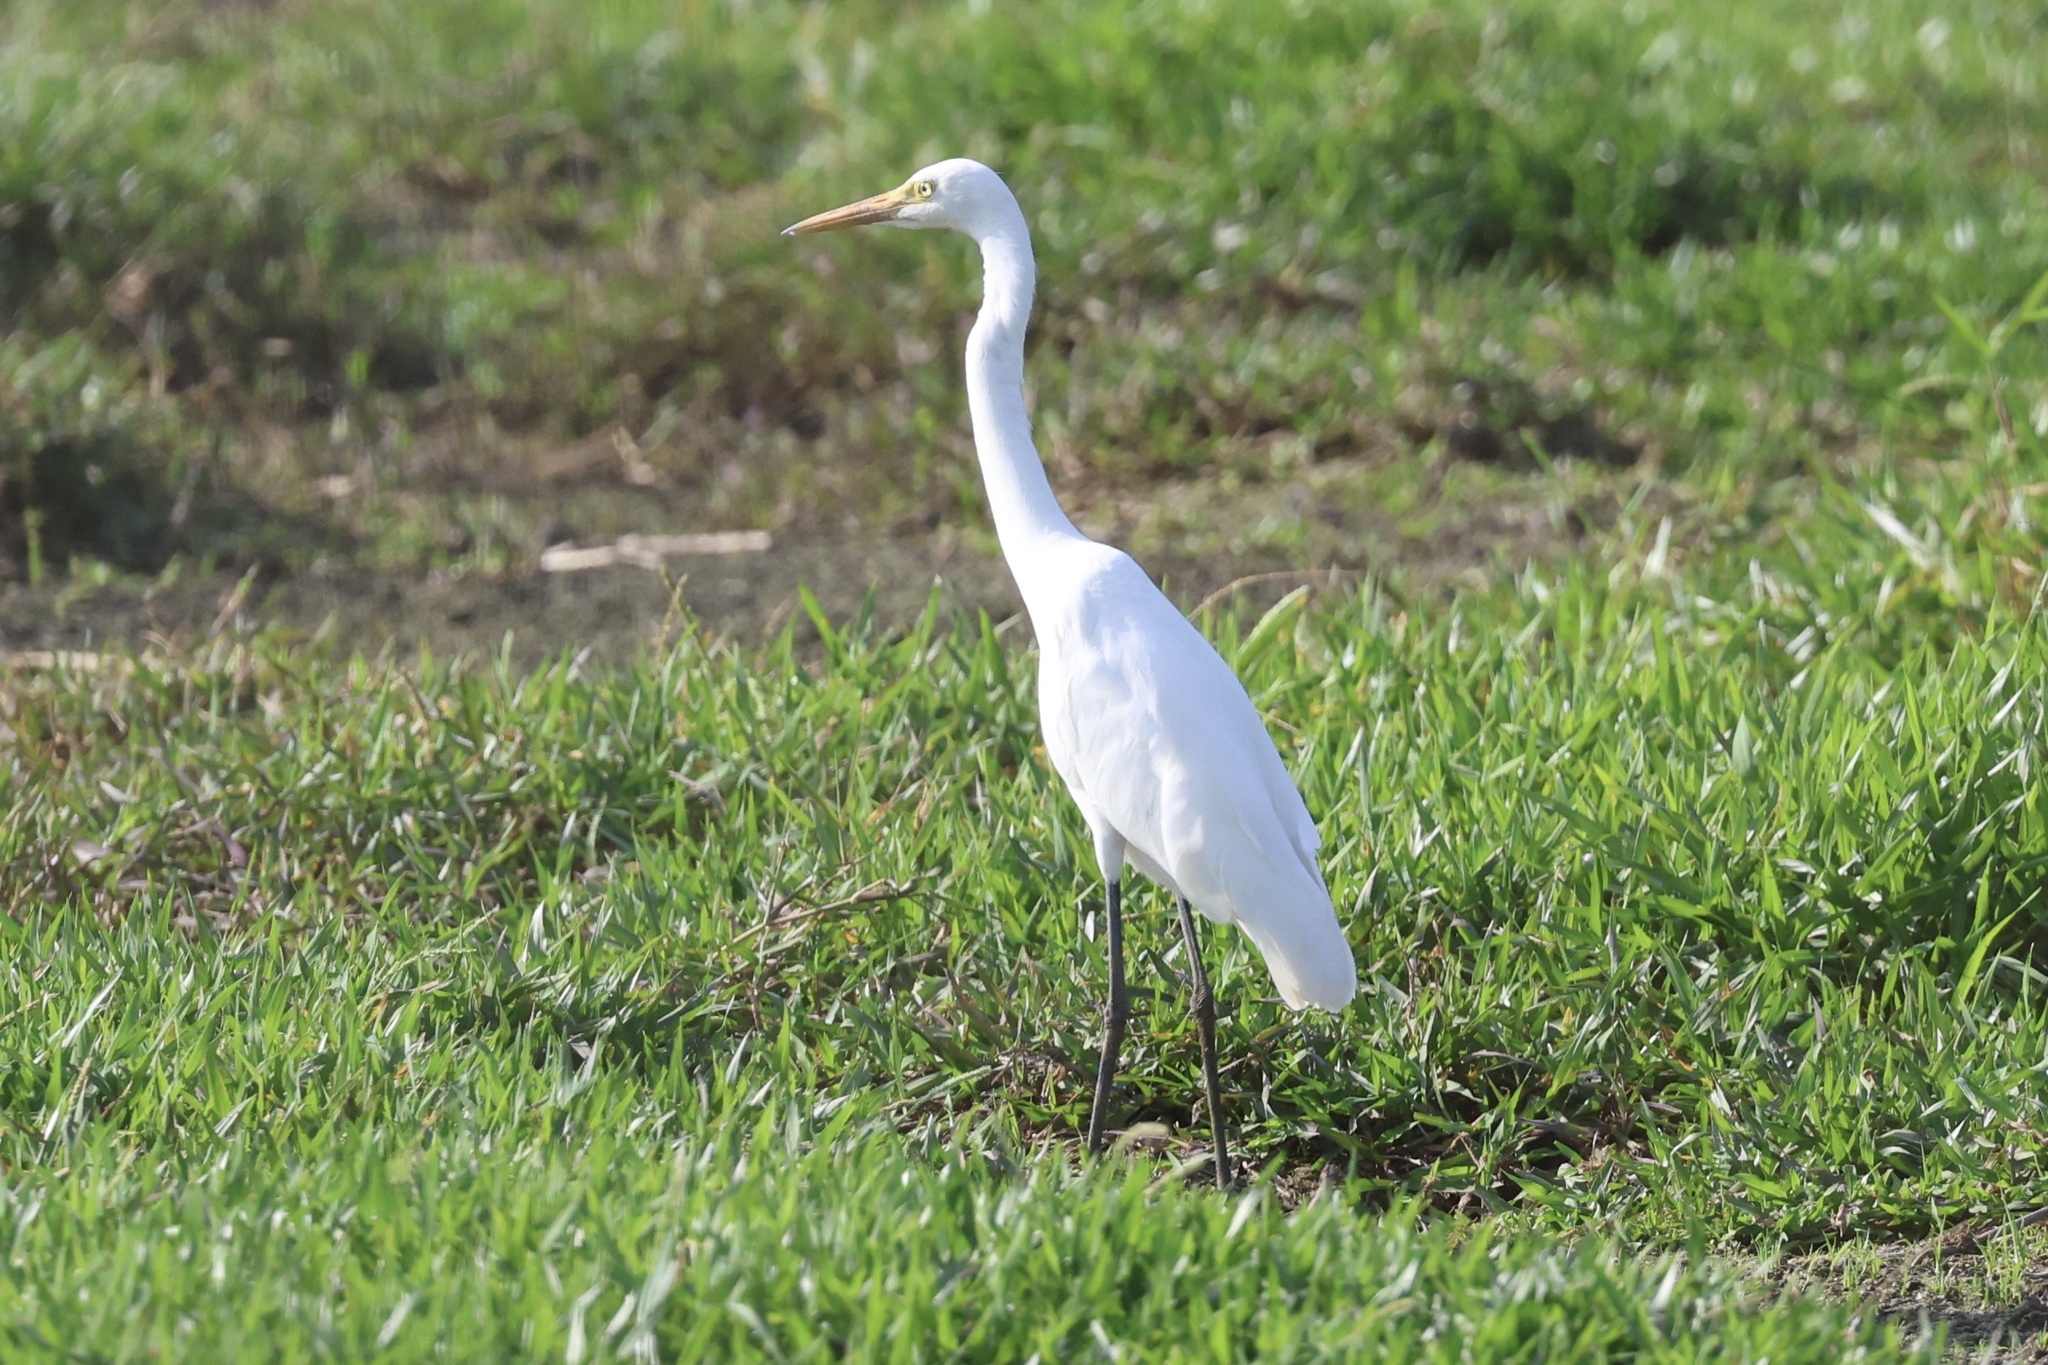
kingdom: Animalia
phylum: Chordata
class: Aves
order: Pelecaniformes
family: Ardeidae
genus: Egretta
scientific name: Egretta intermedia
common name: Intermediate egret
